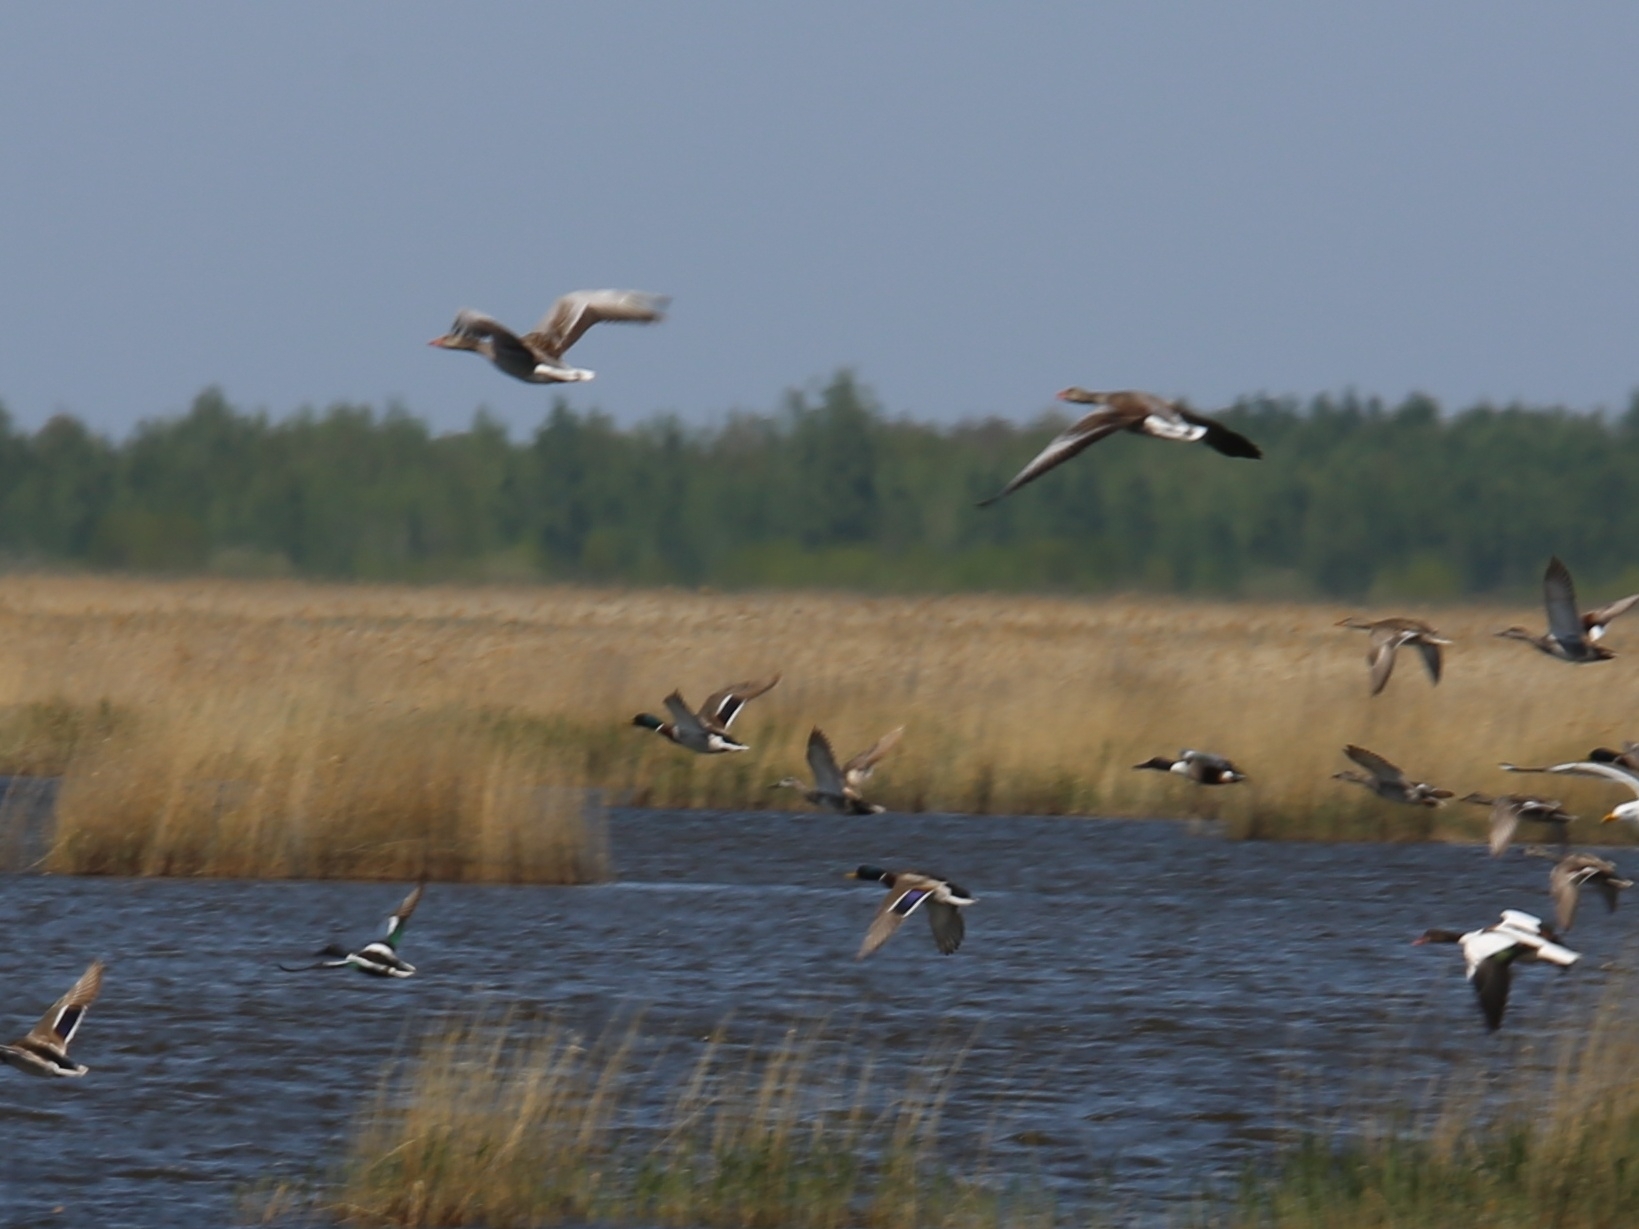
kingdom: Animalia
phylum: Chordata
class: Aves
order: Anseriformes
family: Anatidae
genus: Anser
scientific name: Anser anser
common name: Greylag goose
